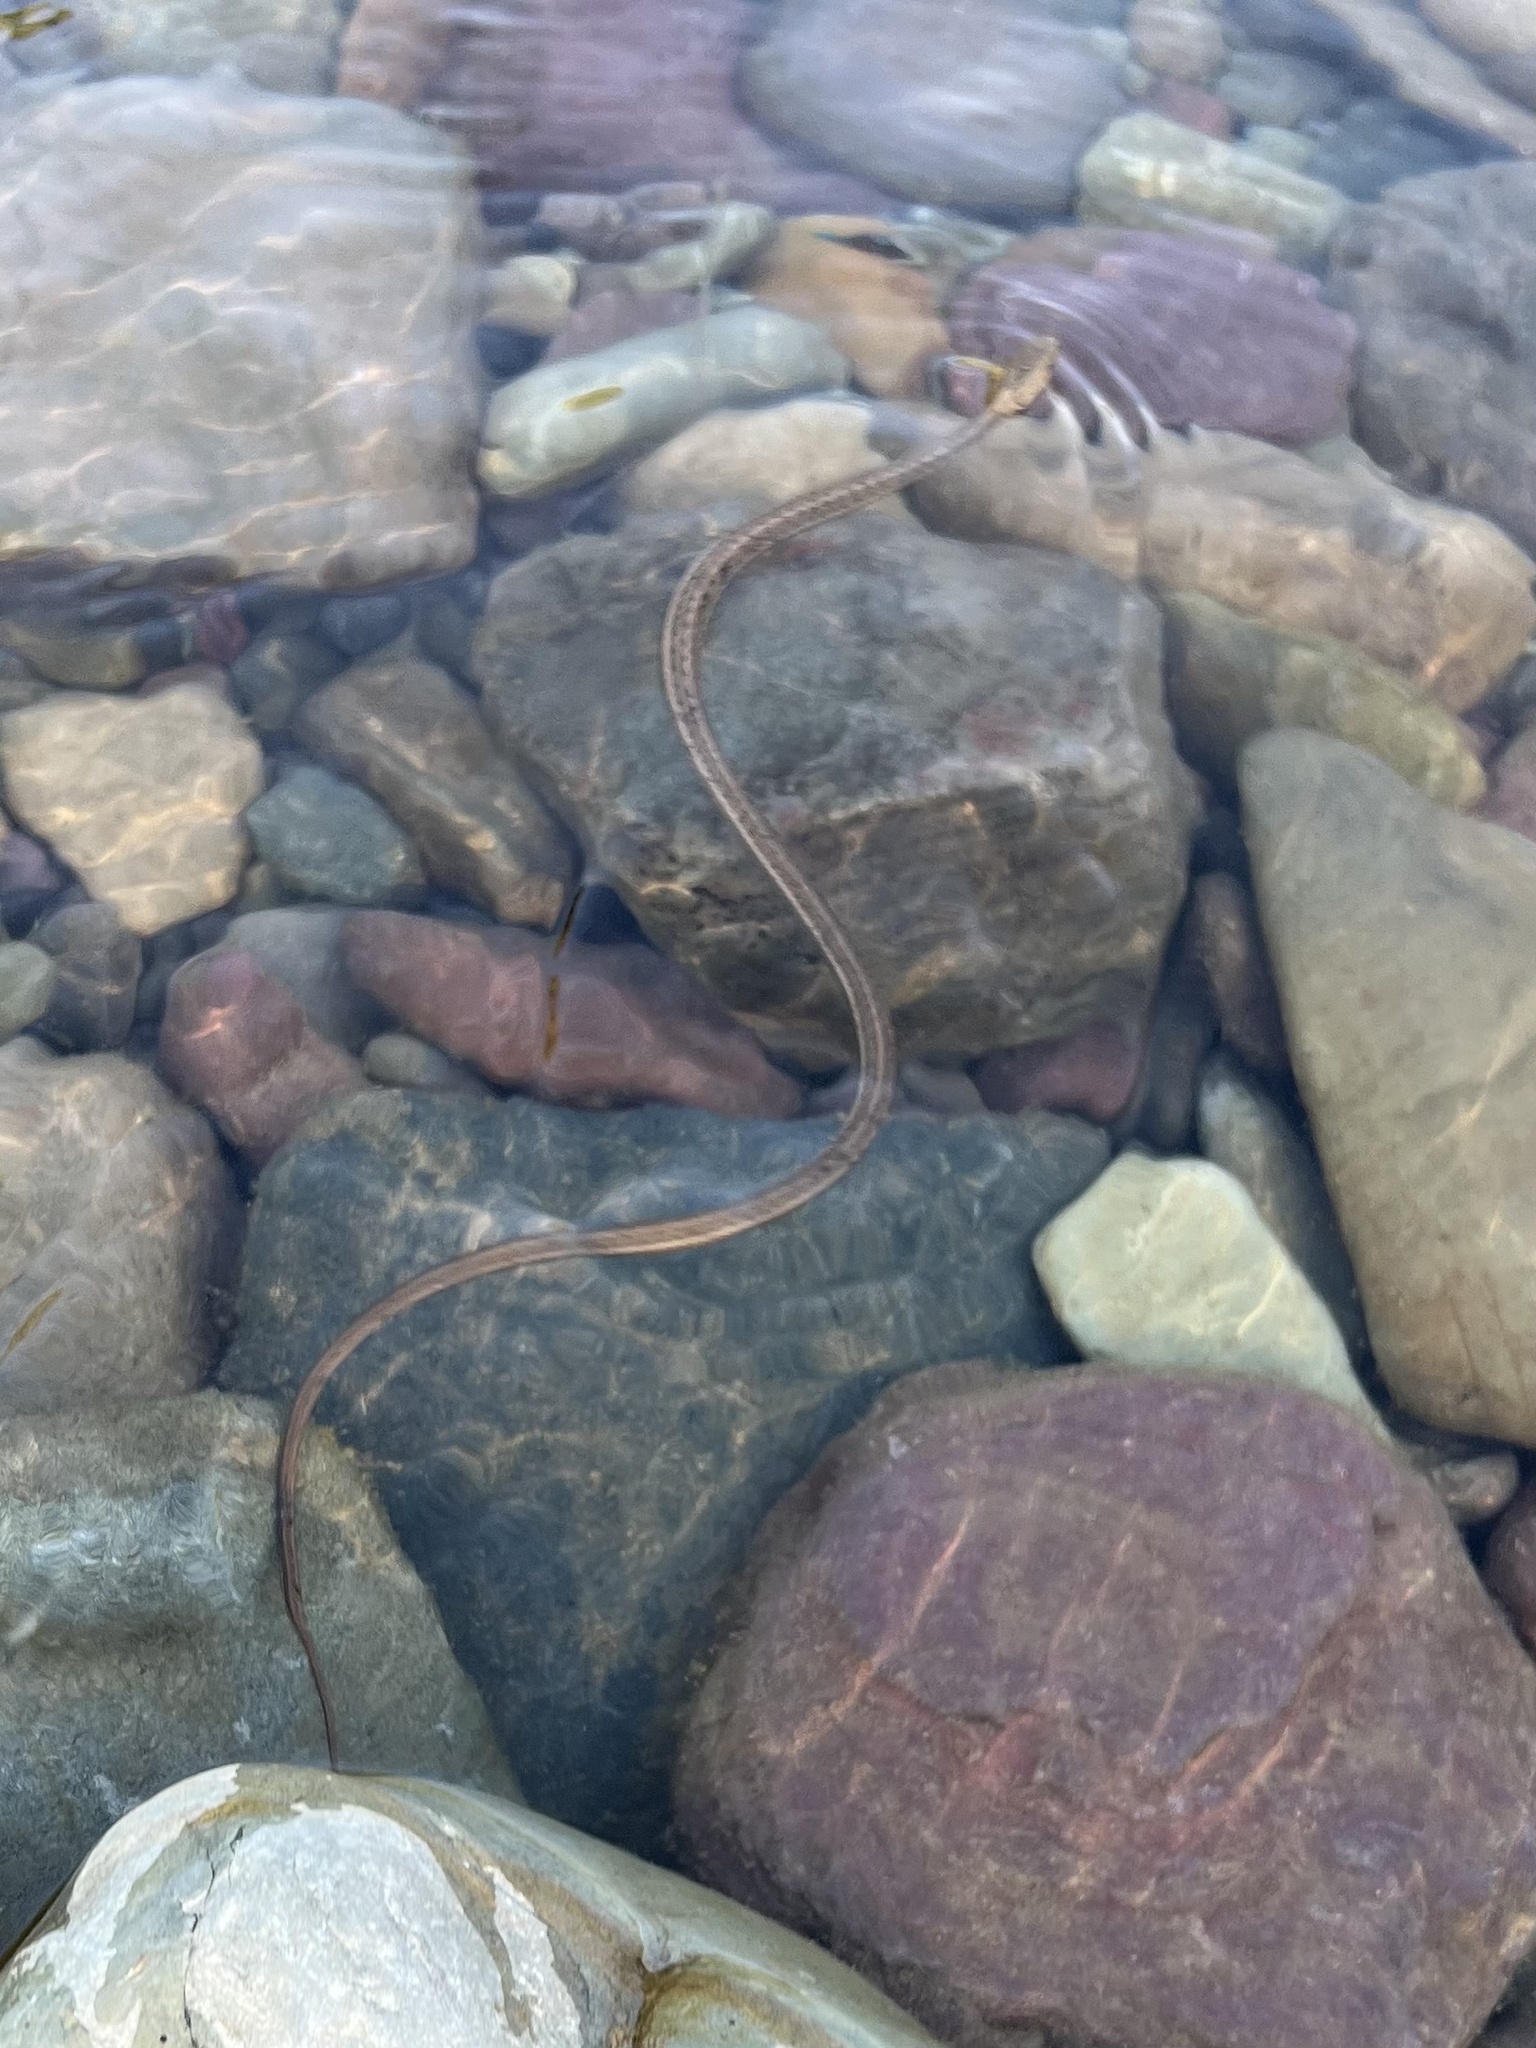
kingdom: Animalia
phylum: Chordata
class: Squamata
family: Colubridae
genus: Thamnophis
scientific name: Thamnophis elegans
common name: Western terrestrial garter snake
